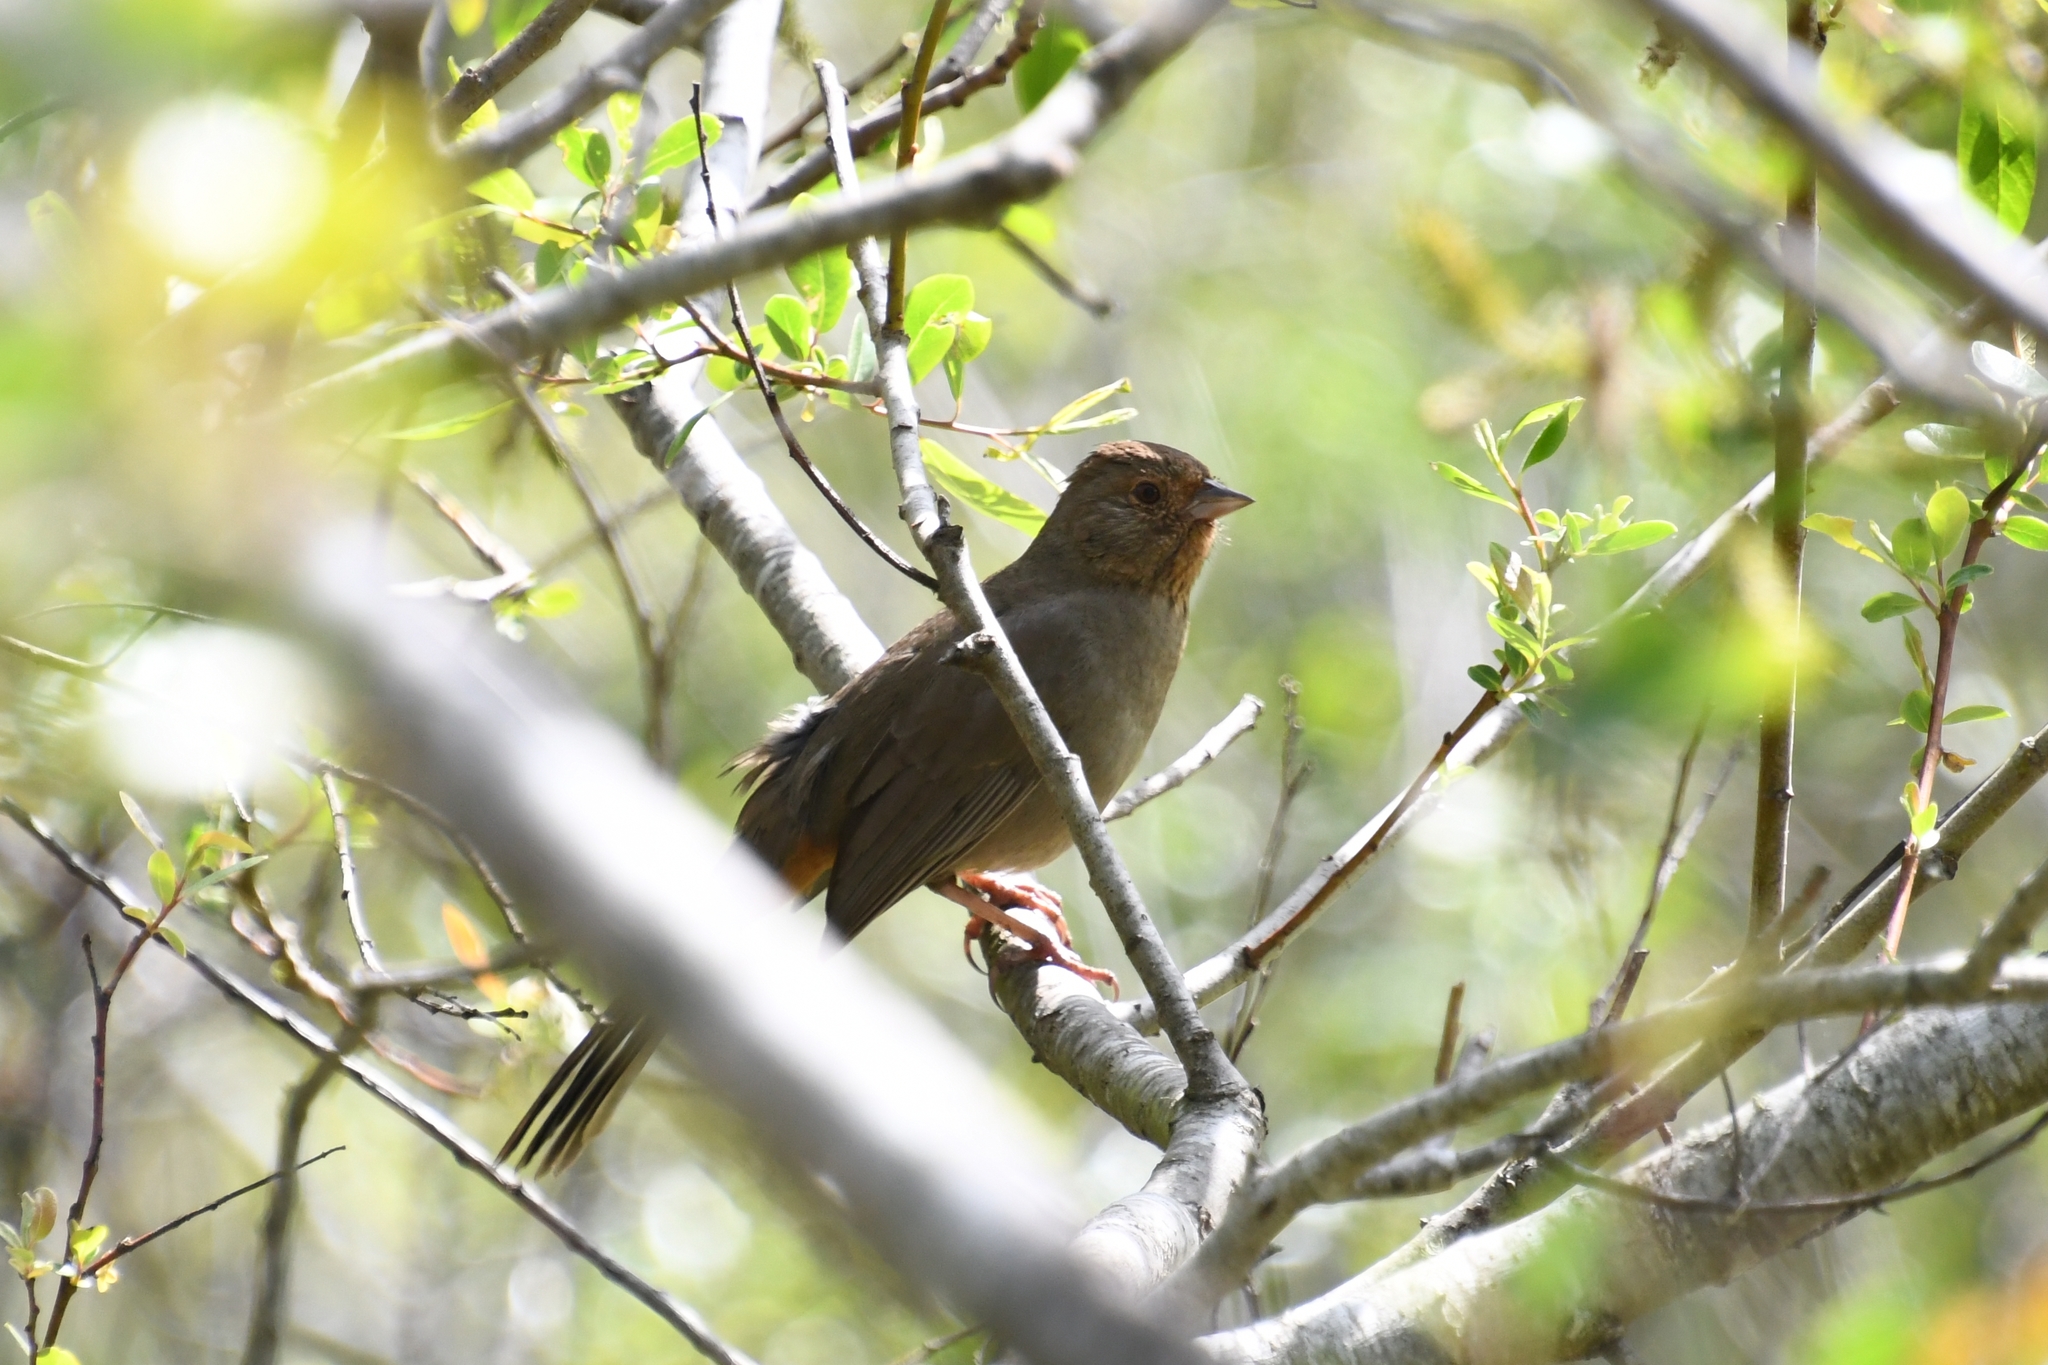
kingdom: Animalia
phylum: Chordata
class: Aves
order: Passeriformes
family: Passerellidae
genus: Melozone
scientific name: Melozone crissalis
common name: California towhee
